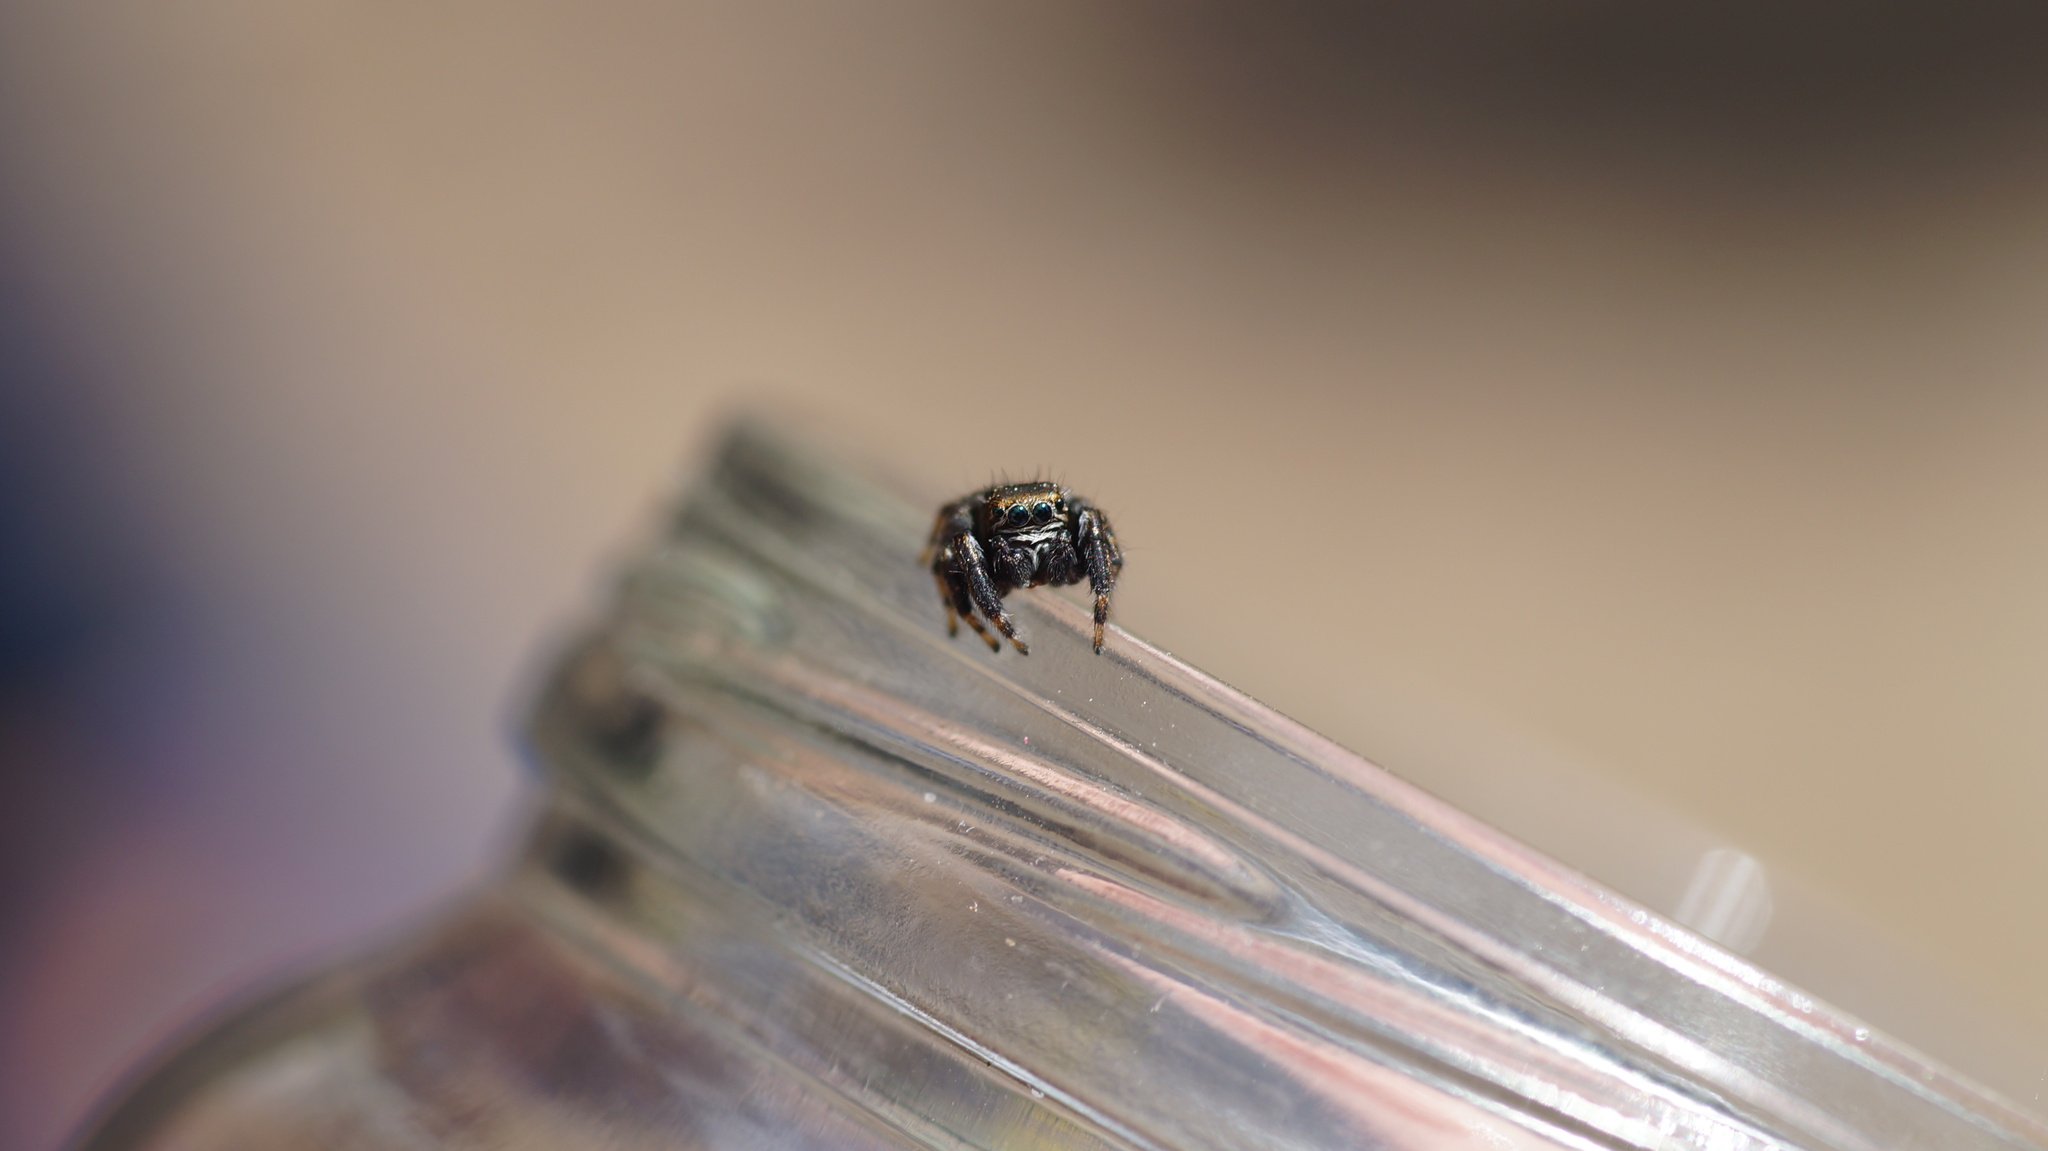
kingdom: Animalia
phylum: Arthropoda
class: Arachnida
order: Araneae
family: Salticidae
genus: Evarcha
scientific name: Evarcha arcuata
